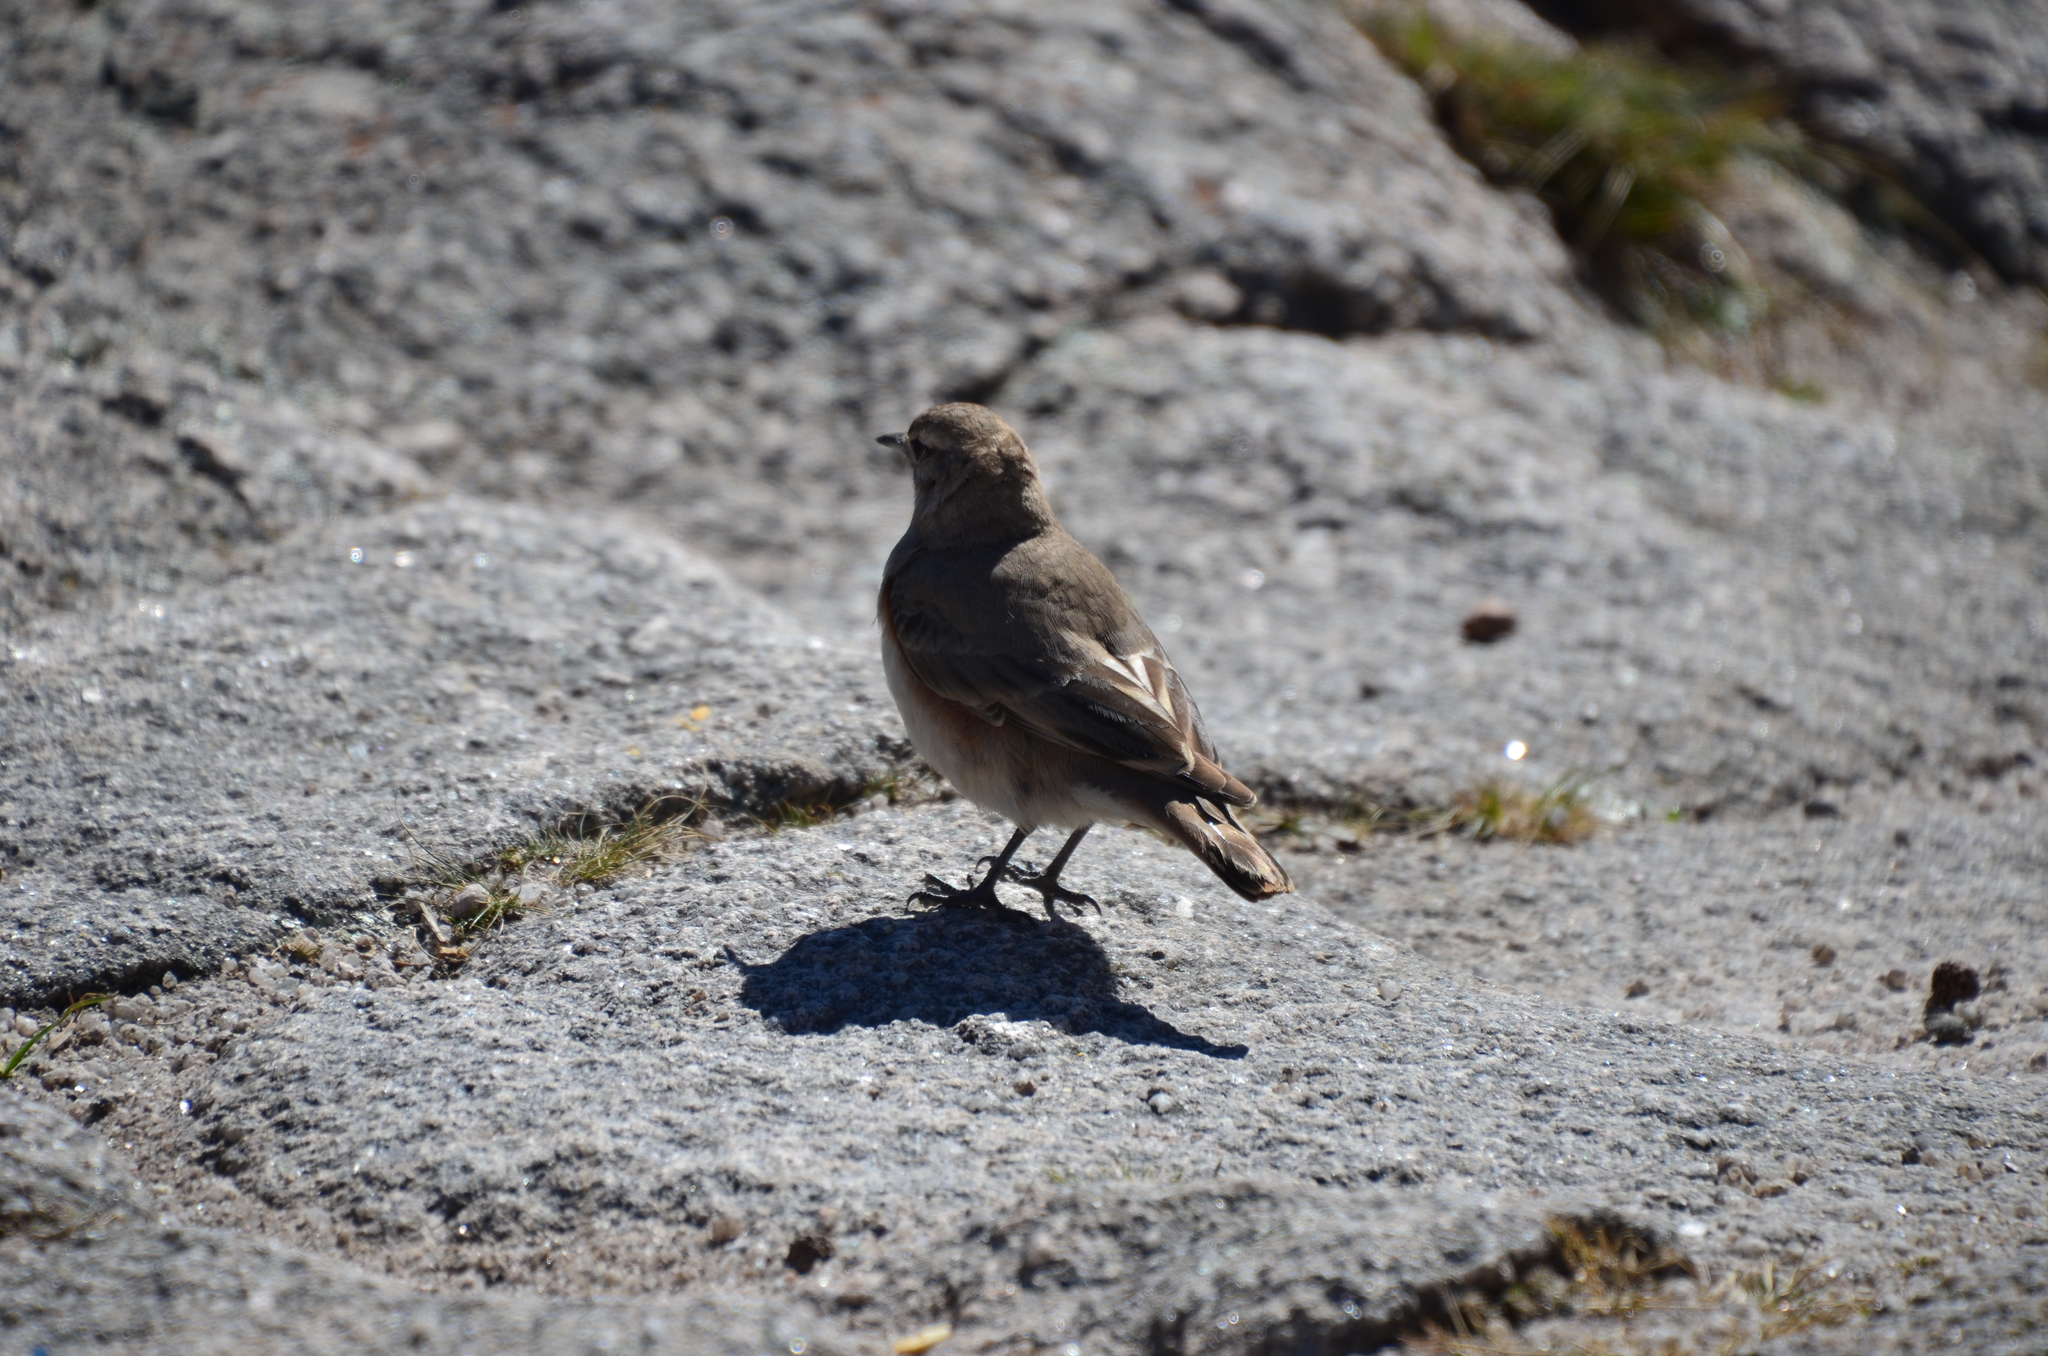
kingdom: Animalia
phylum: Chordata
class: Aves
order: Passeriformes
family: Furnariidae
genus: Geositta
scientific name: Geositta rufipennis
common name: Rufous-banded miner
